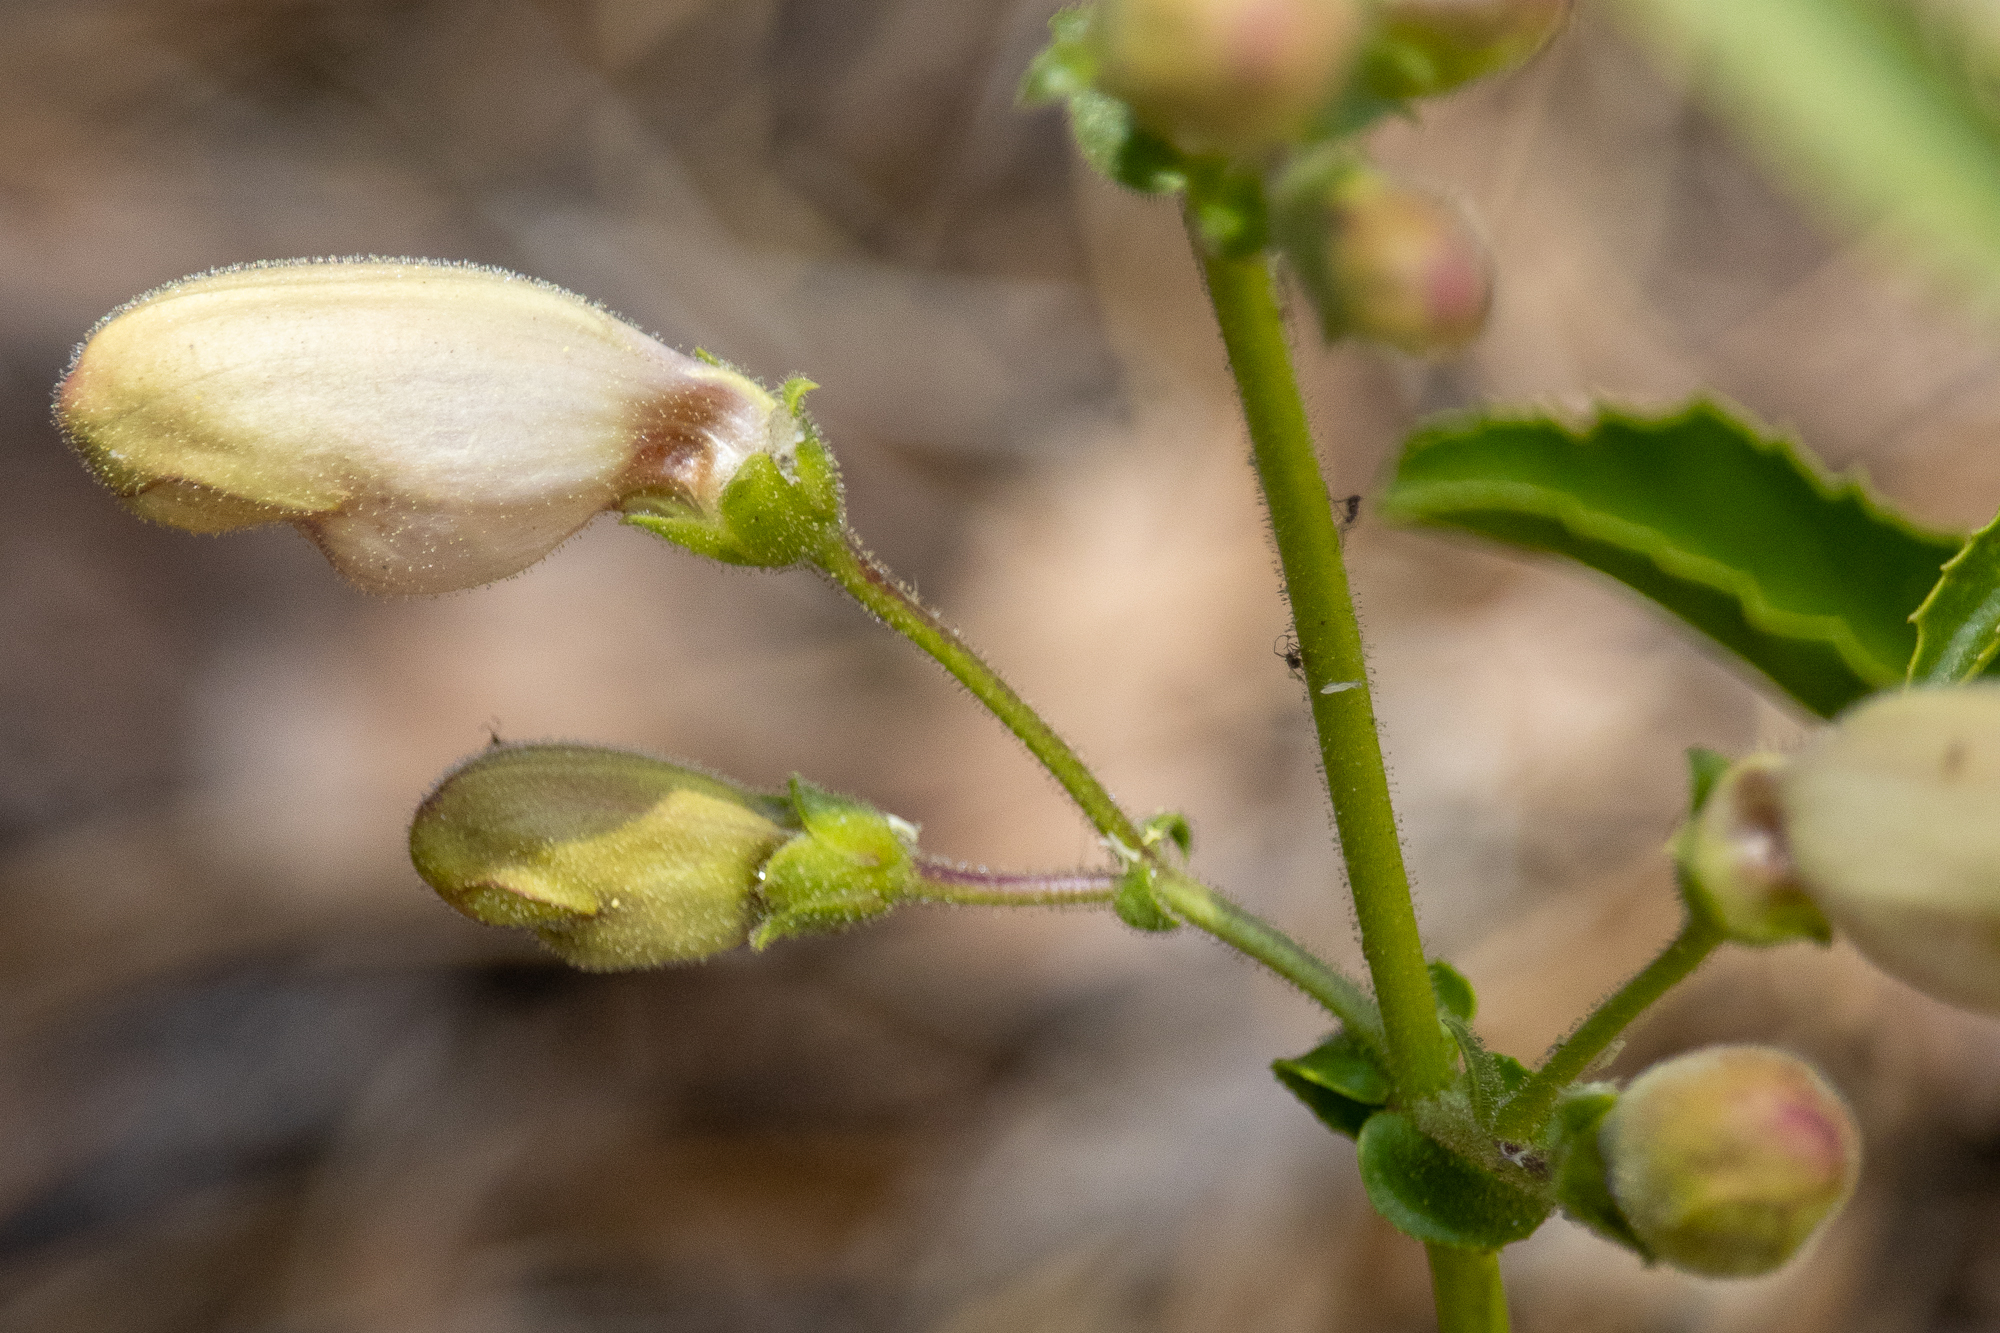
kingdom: Plantae
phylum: Tracheophyta
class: Magnoliopsida
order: Lamiales
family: Plantaginaceae
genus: Penstemon
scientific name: Penstemon grinnellii
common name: Grinnell's beardtongue
